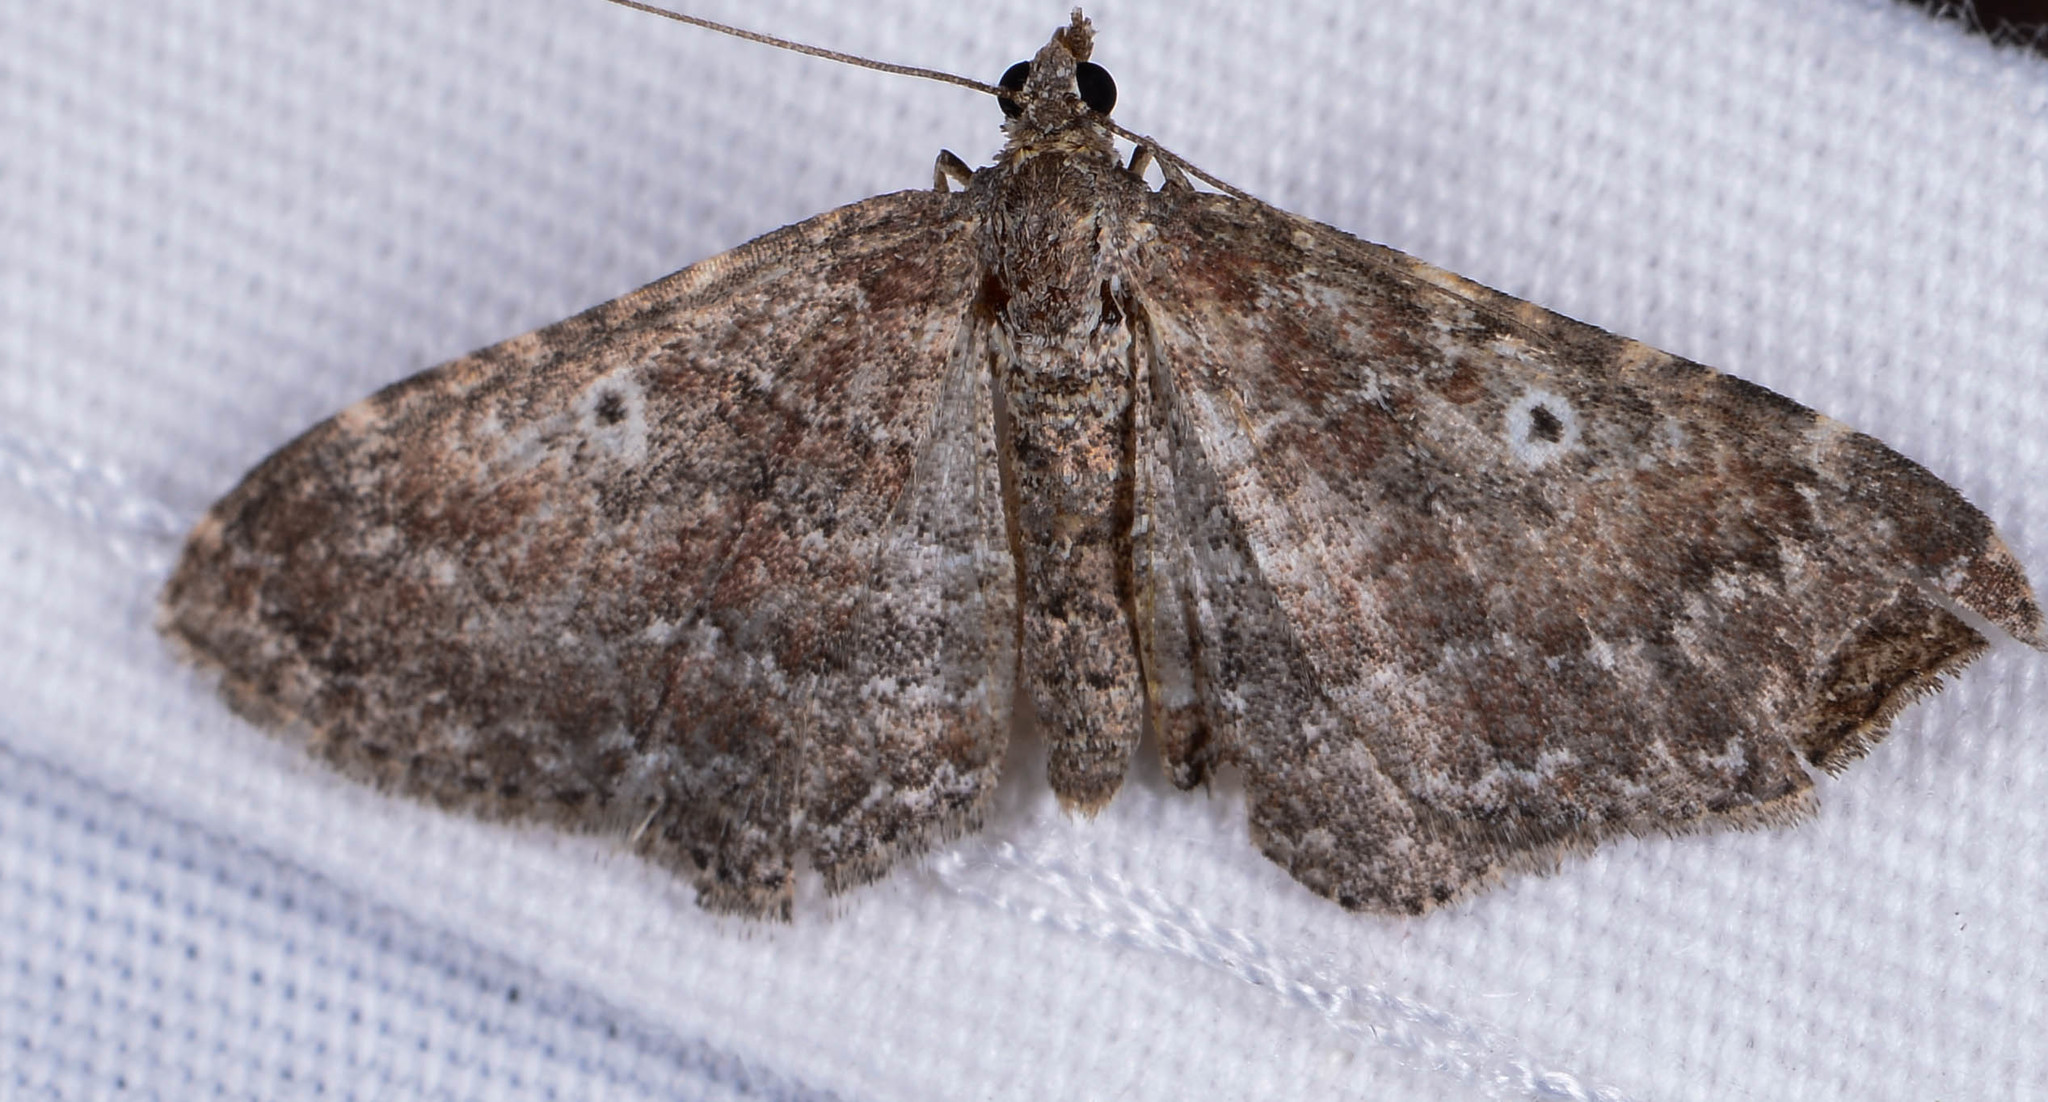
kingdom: Animalia
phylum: Arthropoda
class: Insecta
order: Lepidoptera
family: Geometridae
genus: Orthonama
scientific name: Orthonama obstipata
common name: The gem
